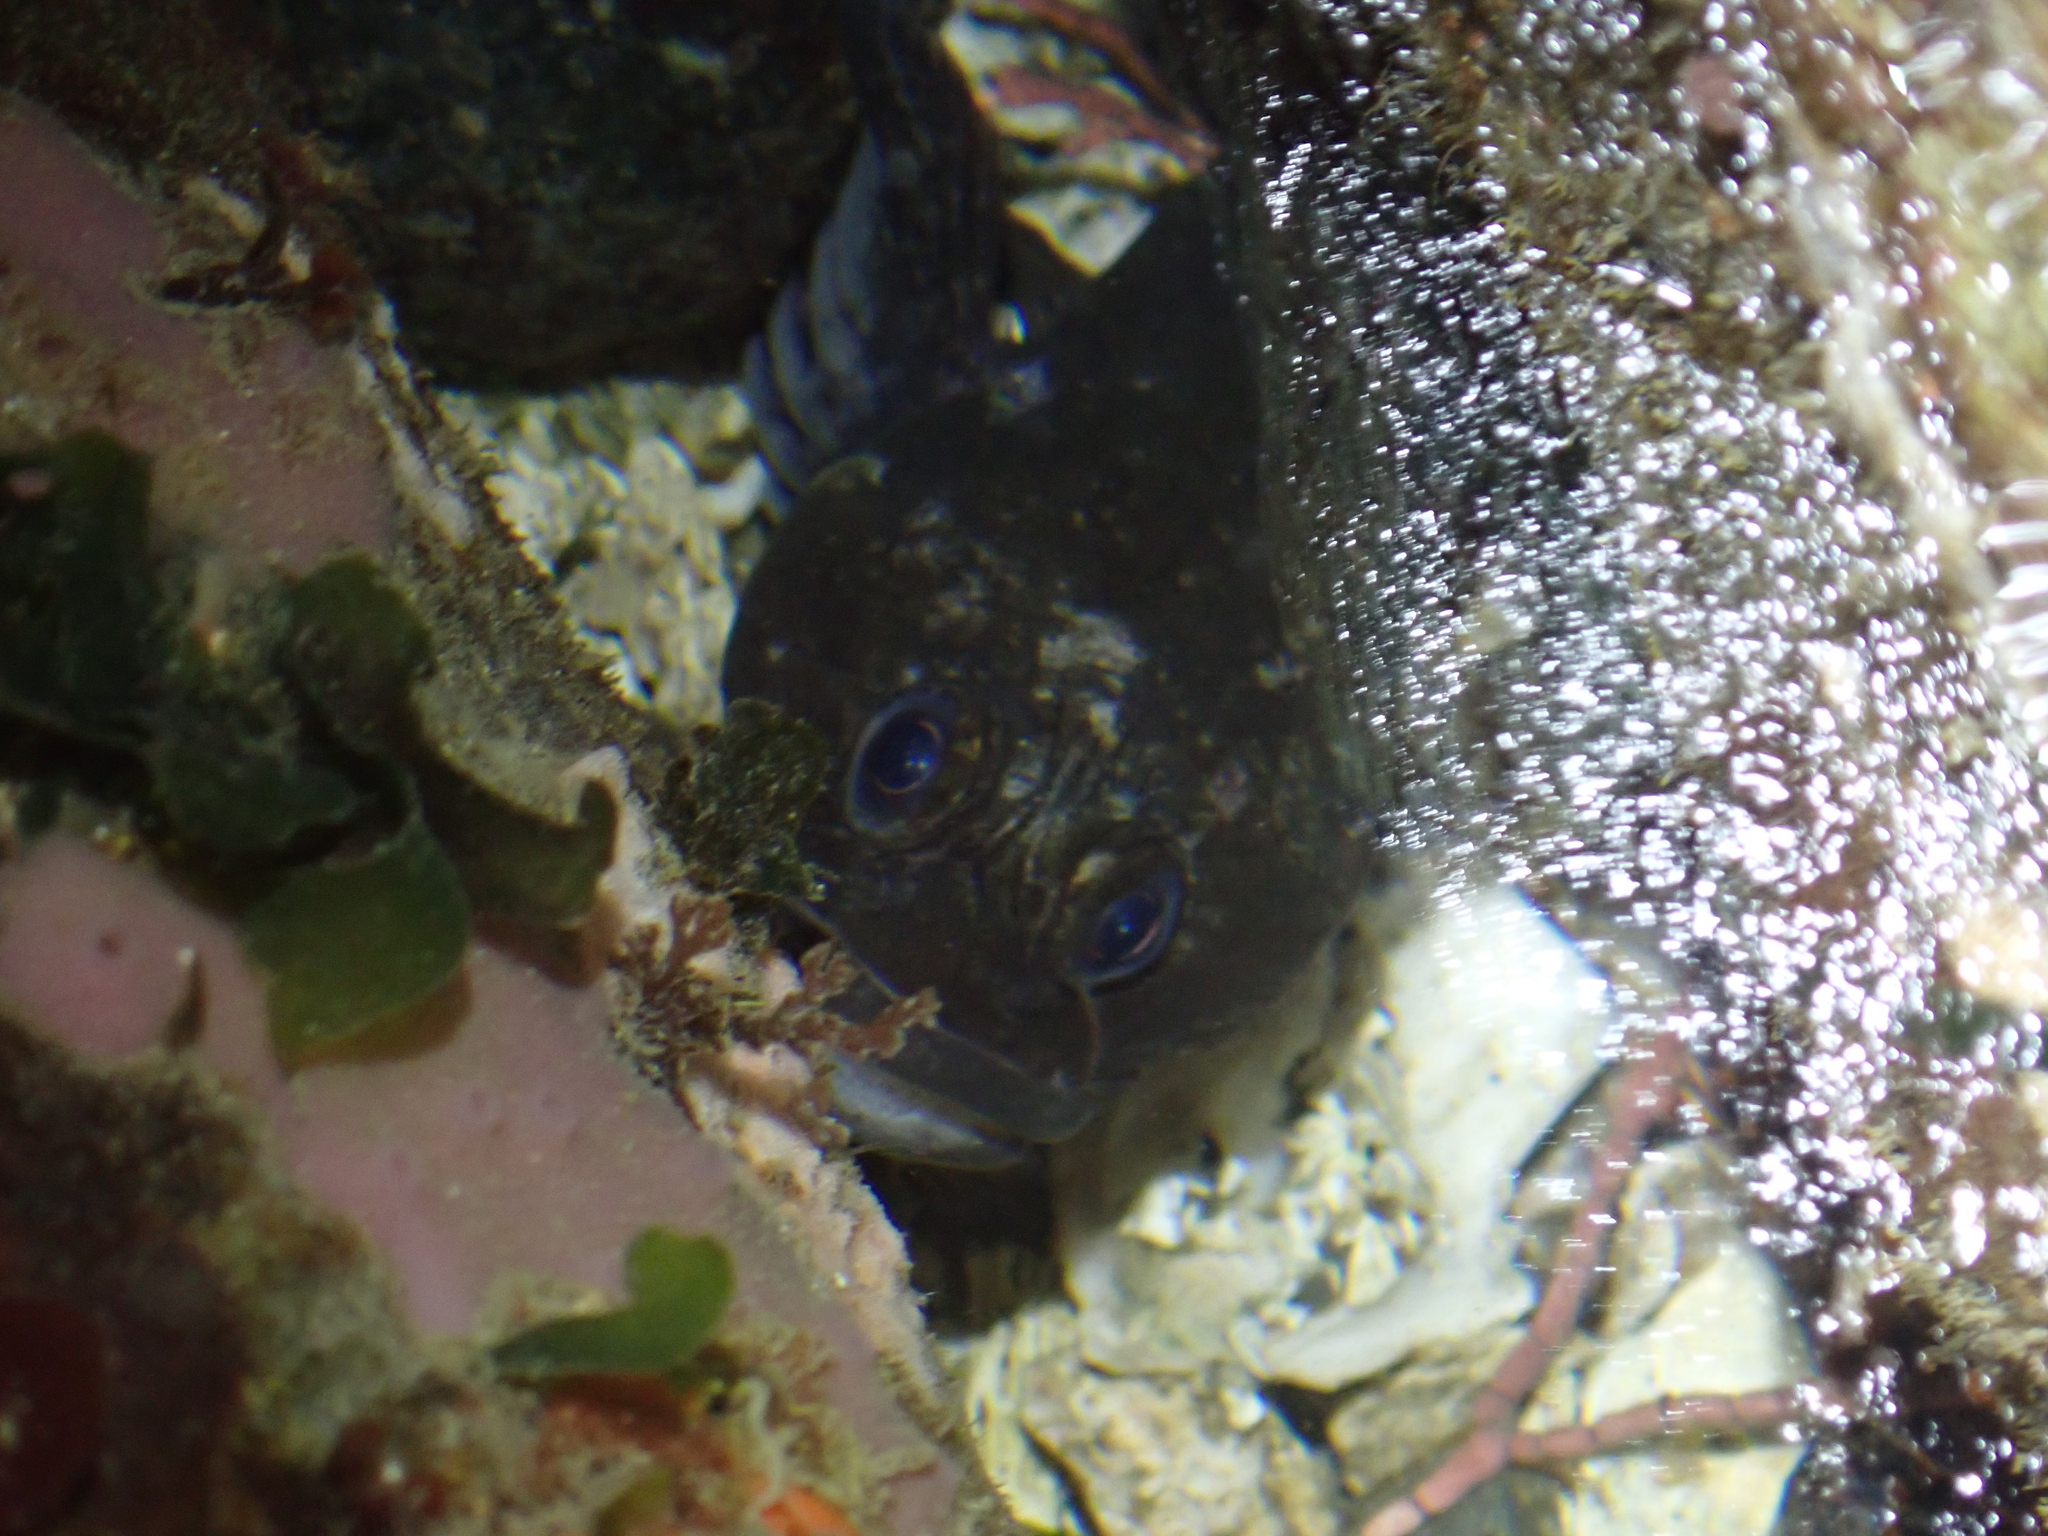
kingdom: Animalia
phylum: Chordata
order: Scorpaeniformes
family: Cottidae
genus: Ascelichthys
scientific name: Ascelichthys rhodorus
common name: Rosylip sculpin
